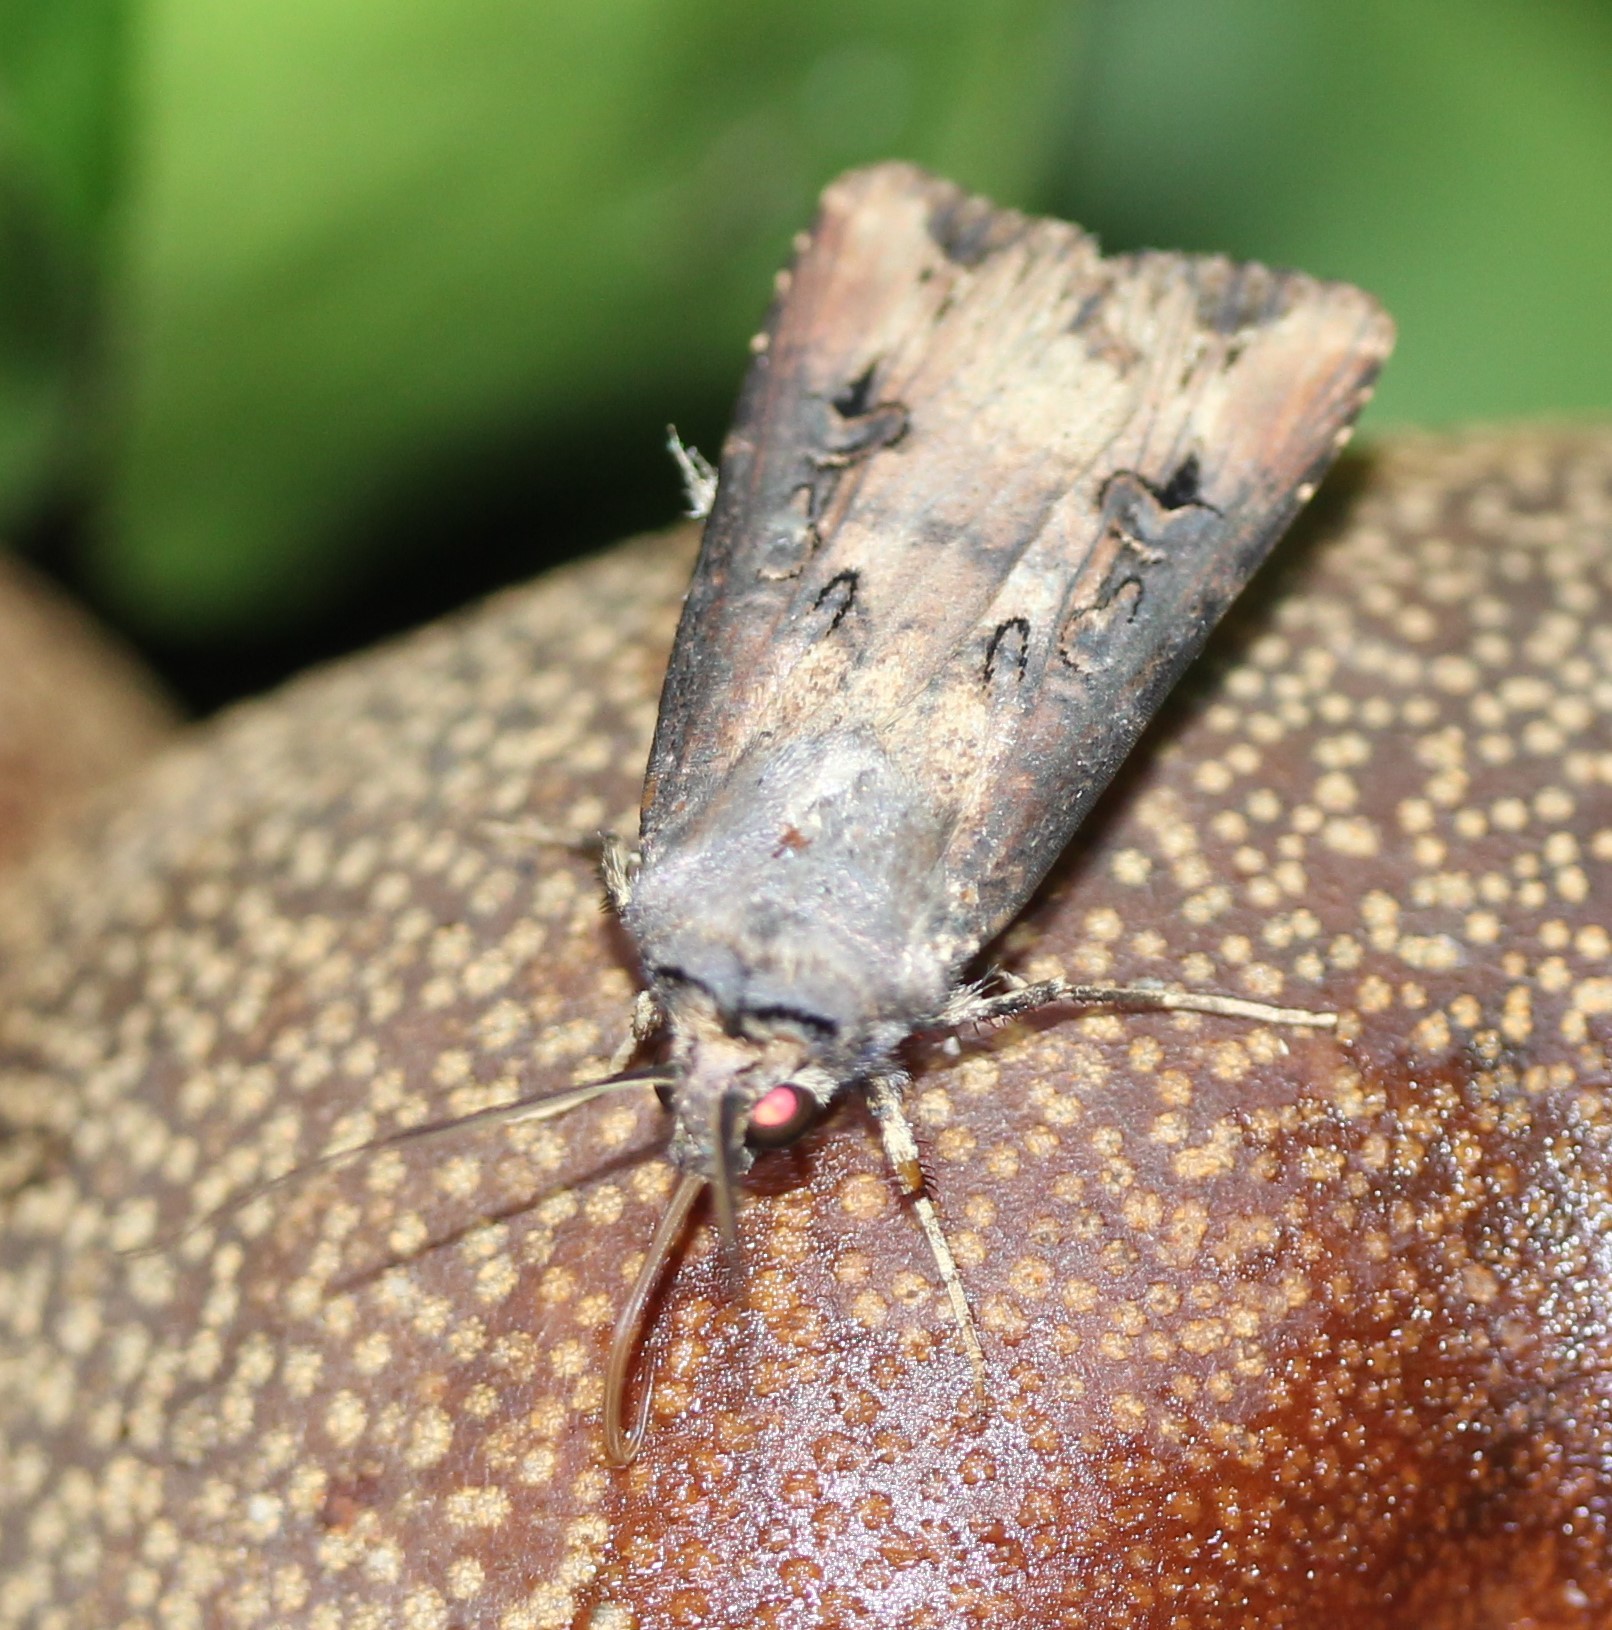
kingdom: Animalia
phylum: Arthropoda
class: Insecta
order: Lepidoptera
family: Noctuidae
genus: Agrotis
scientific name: Agrotis ipsilon
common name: Dark sword-grass
